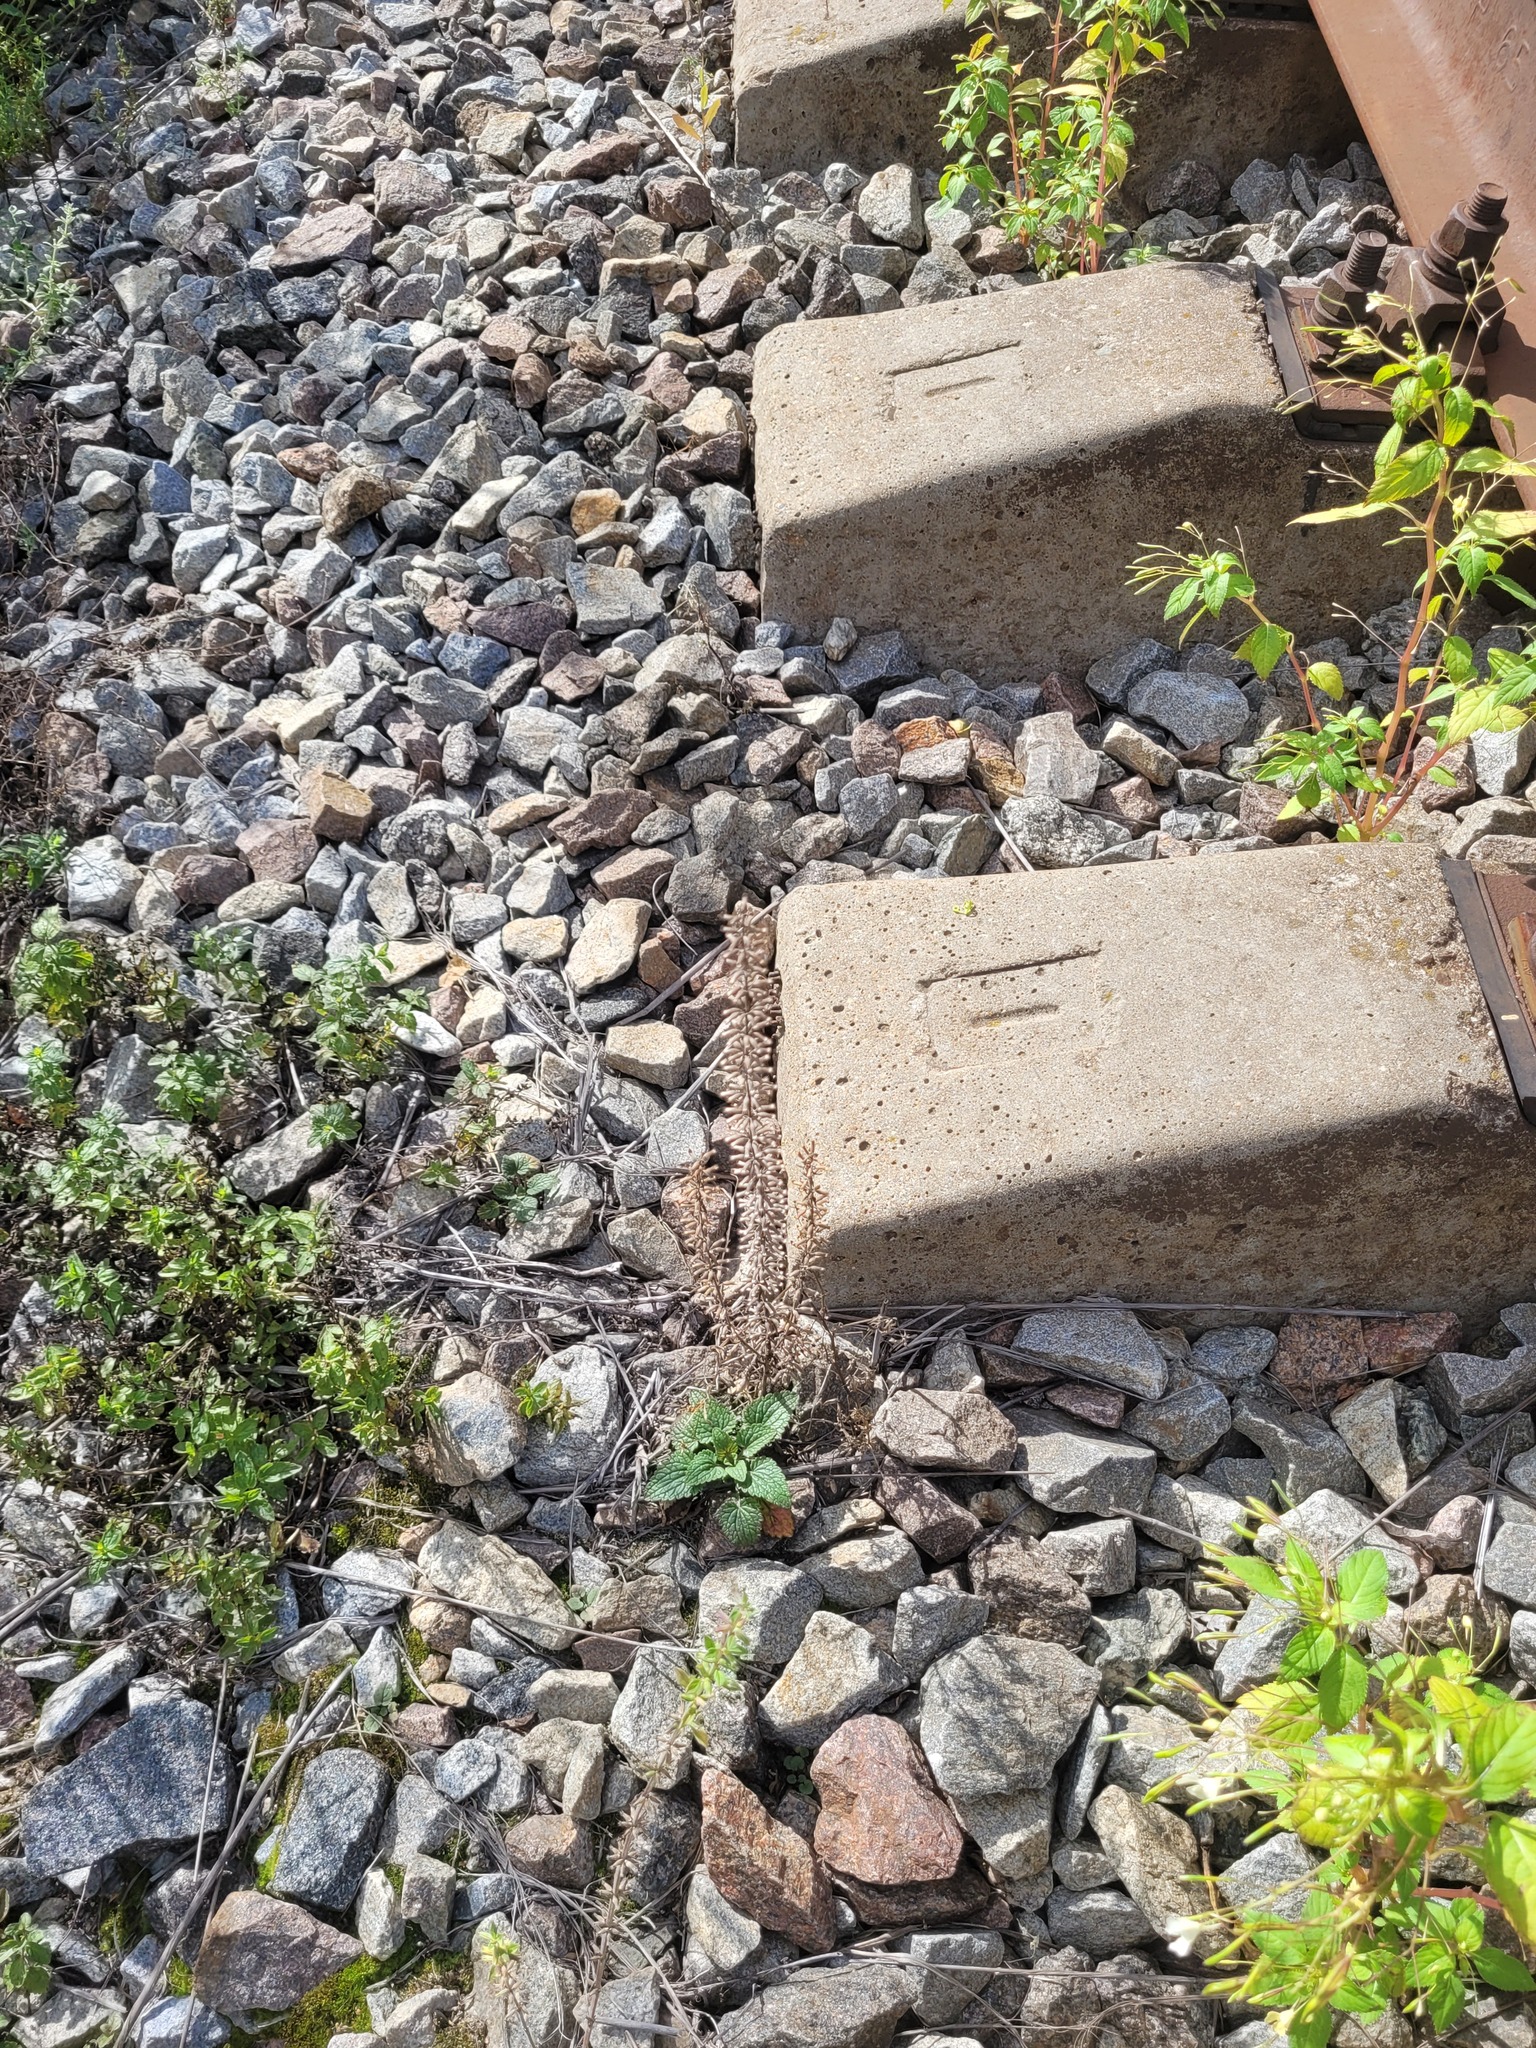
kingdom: Plantae
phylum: Tracheophyta
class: Magnoliopsida
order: Lamiales
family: Lamiaceae
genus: Dracocephalum
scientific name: Dracocephalum thymiflorum
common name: Thymeleaf dragonhead
